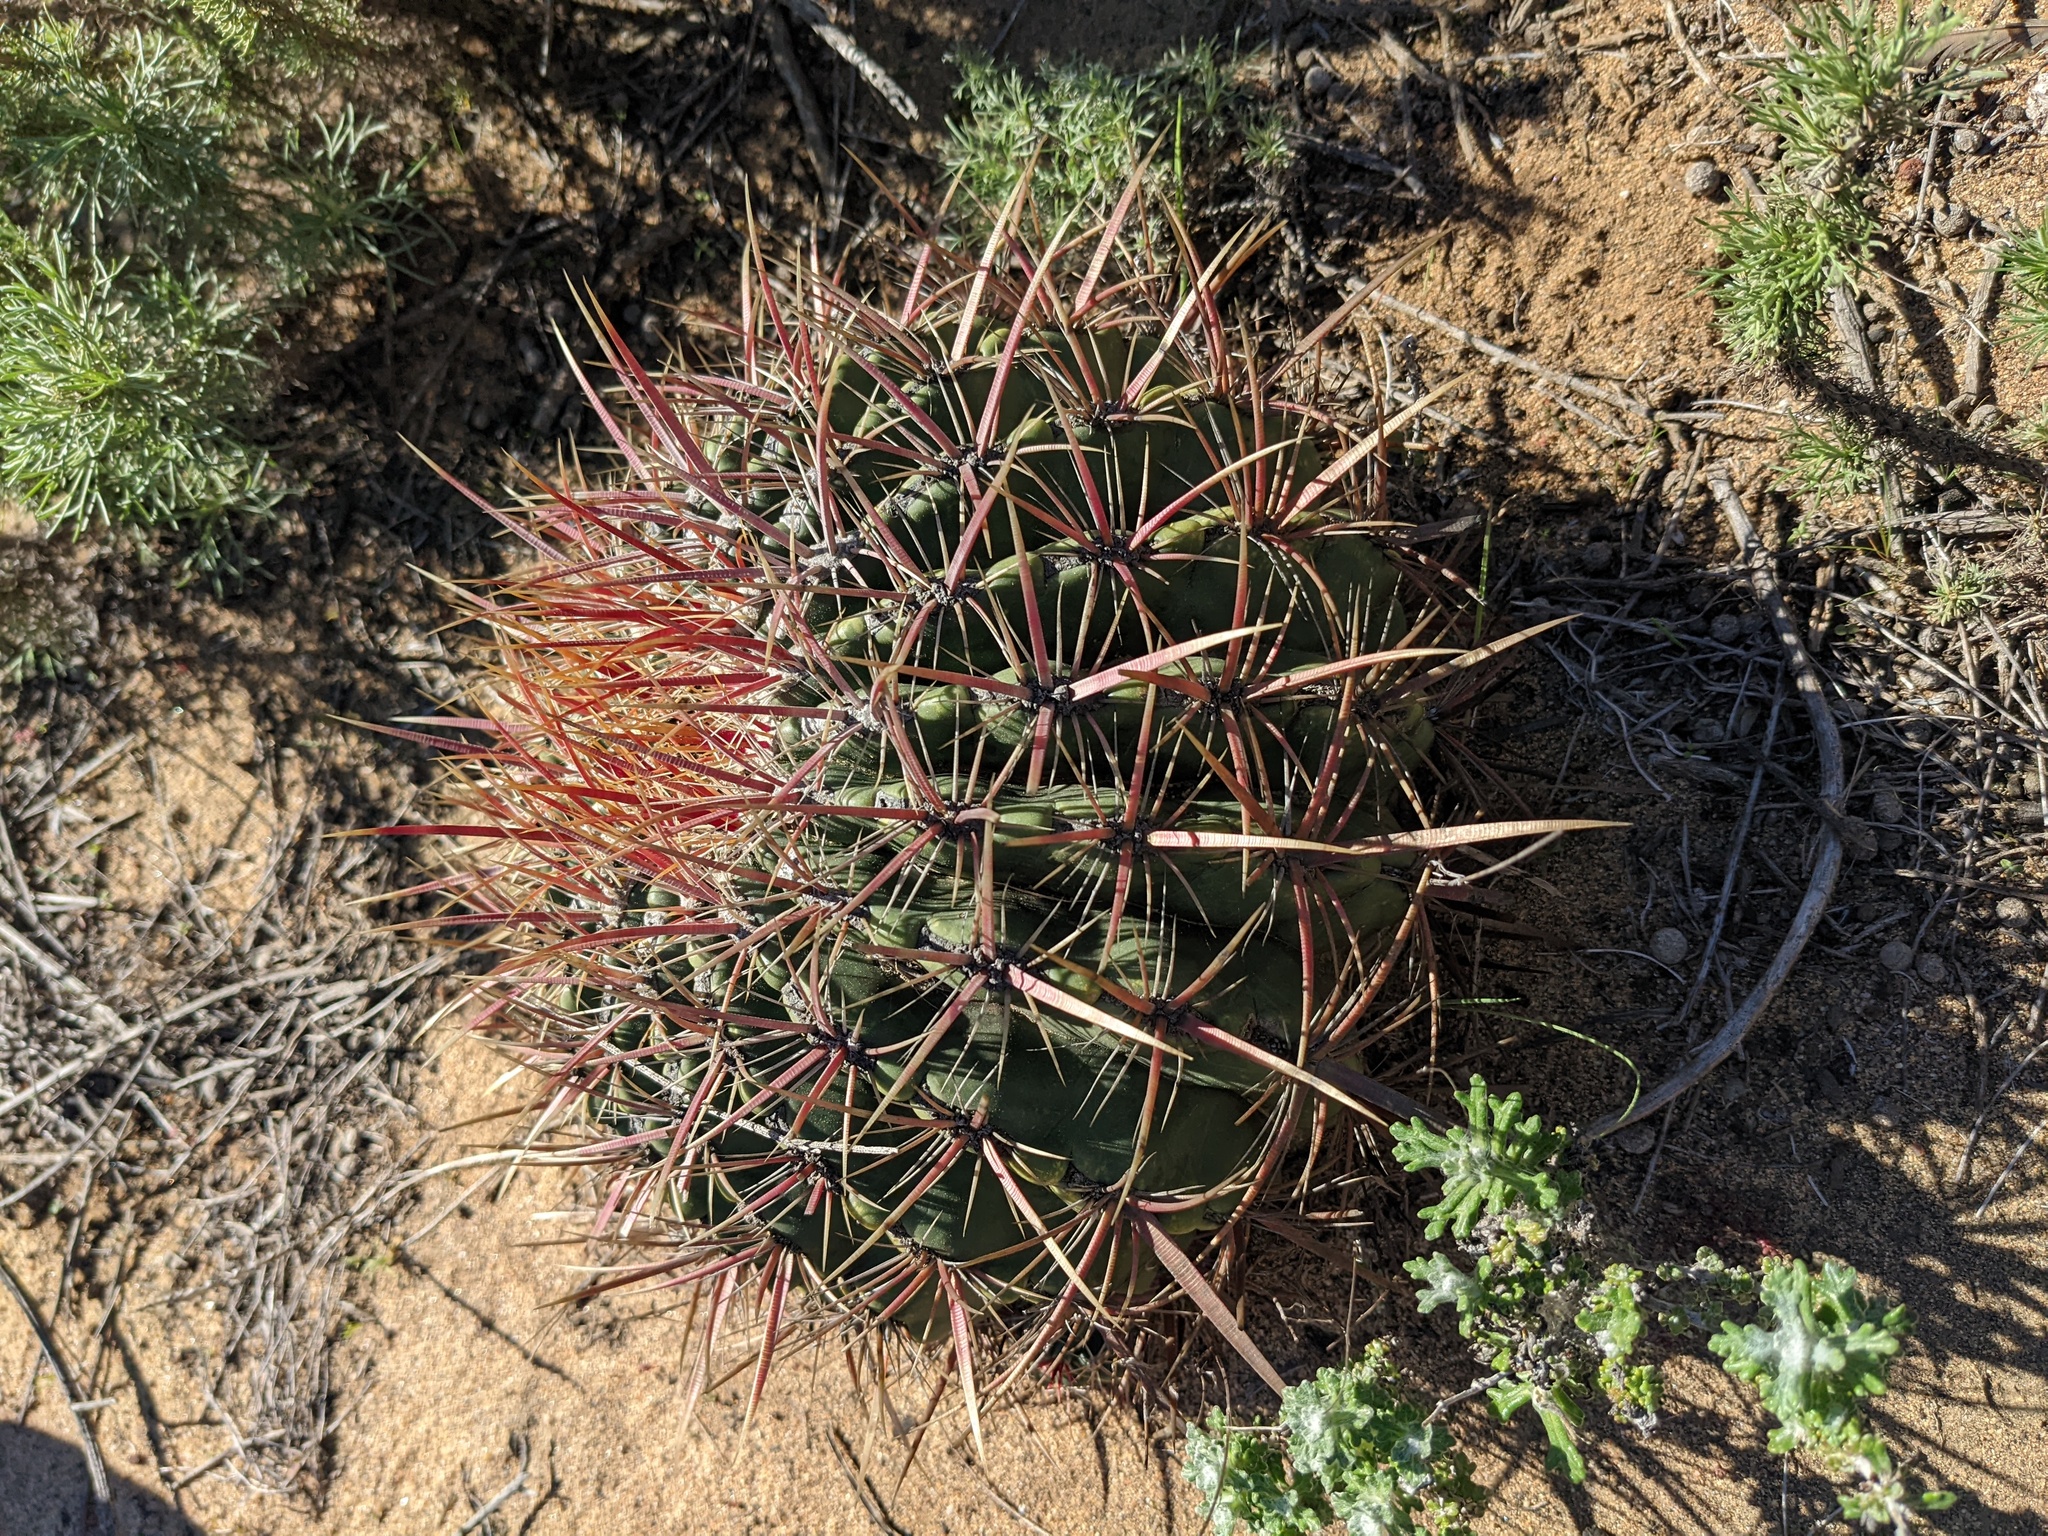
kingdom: Plantae
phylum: Tracheophyta
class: Magnoliopsida
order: Caryophyllales
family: Cactaceae
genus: Ferocactus
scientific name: Ferocactus viridescens
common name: San diego barrel cactus
